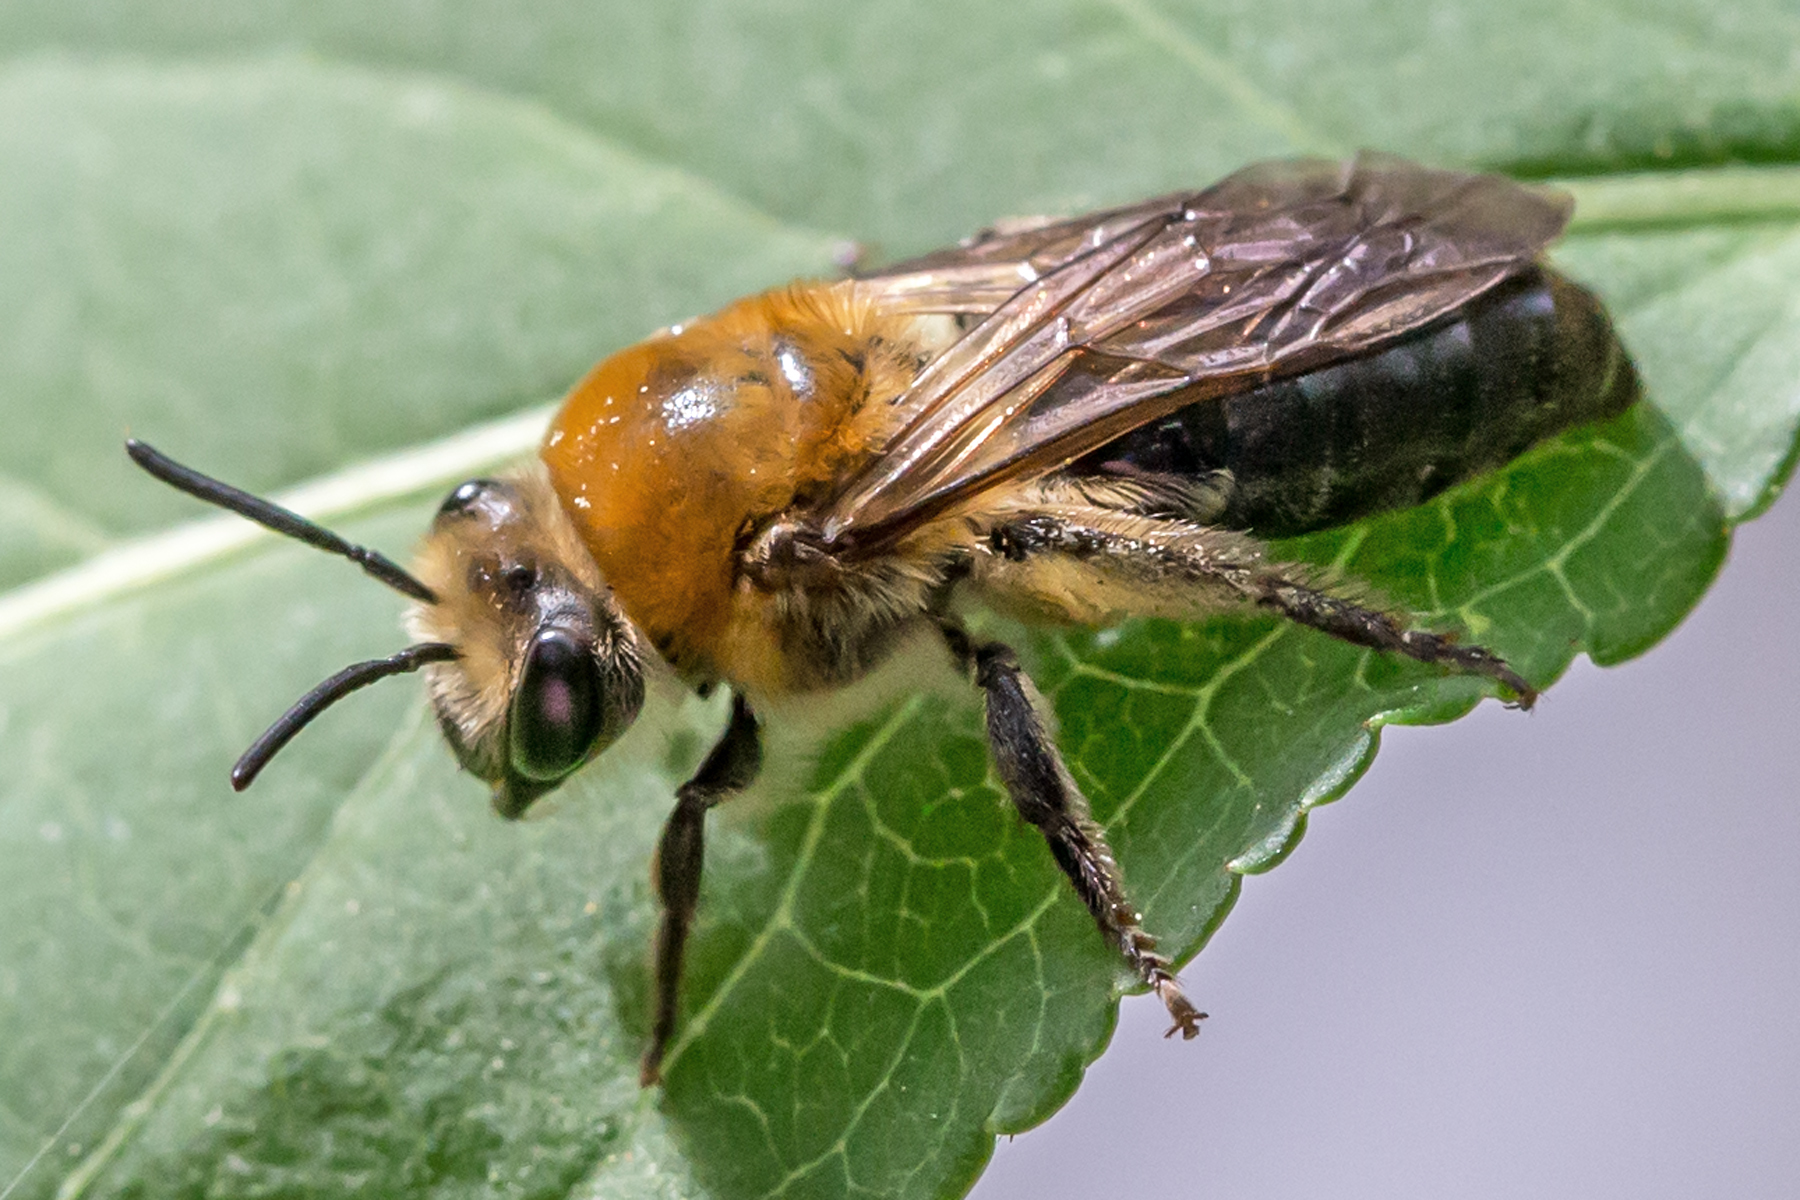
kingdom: Animalia
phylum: Arthropoda
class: Insecta
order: Hymenoptera
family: Colletidae
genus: Colletes
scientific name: Colletes thoracicus
